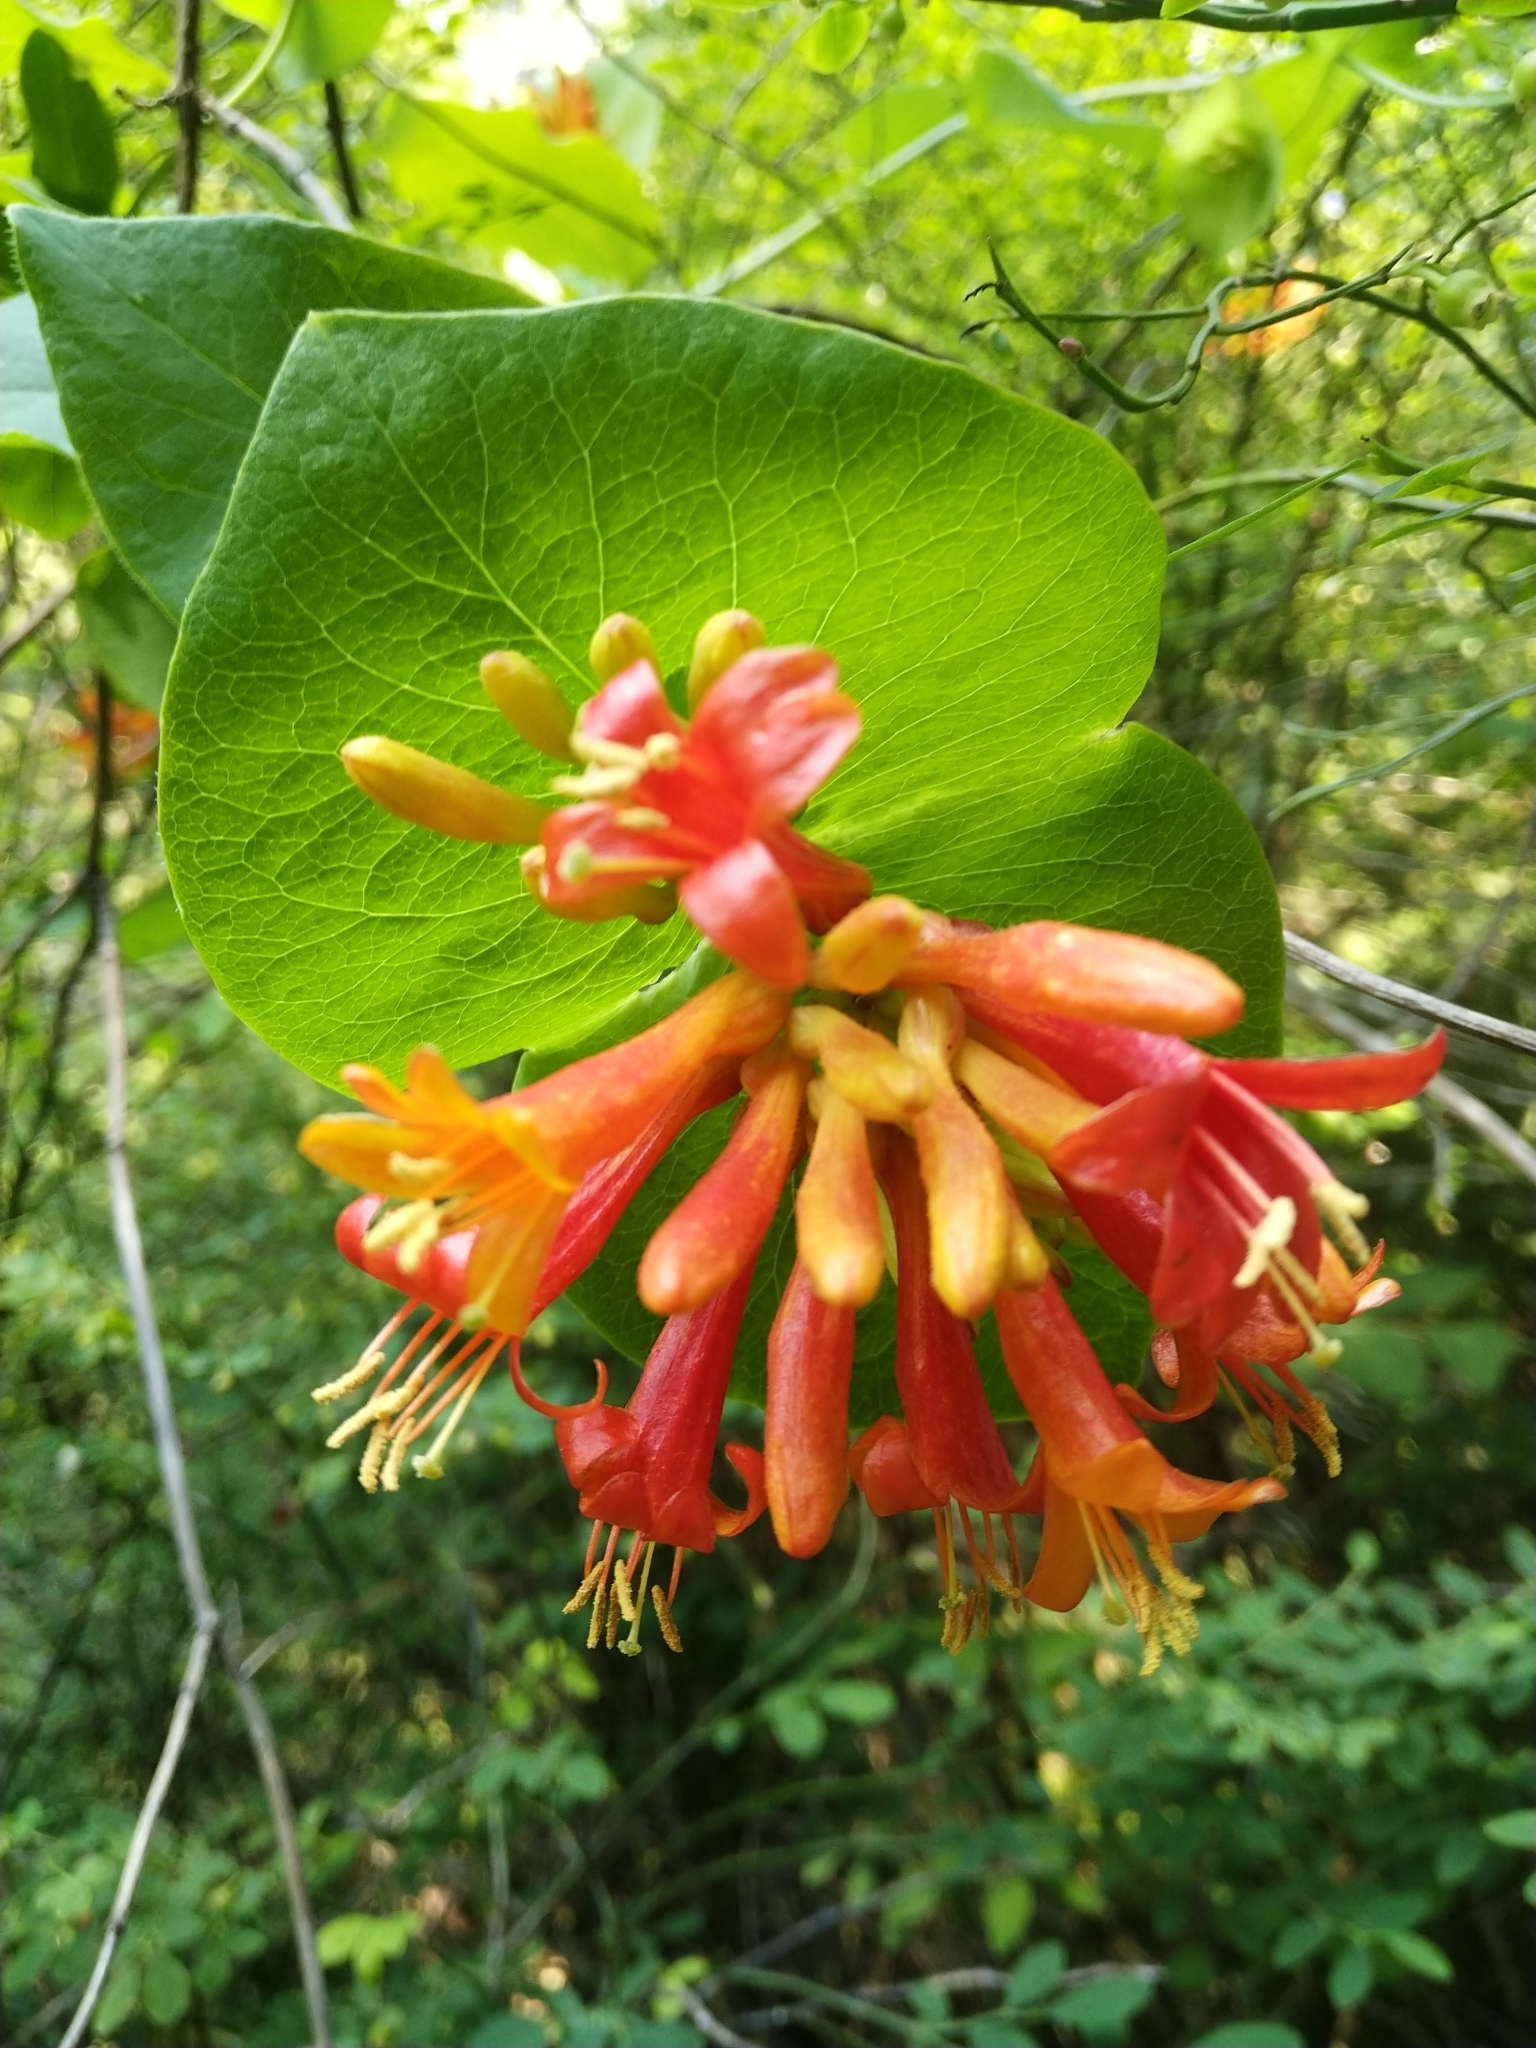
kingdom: Plantae
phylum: Tracheophyta
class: Magnoliopsida
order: Dipsacales
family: Caprifoliaceae
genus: Lonicera
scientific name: Lonicera ciliosa
